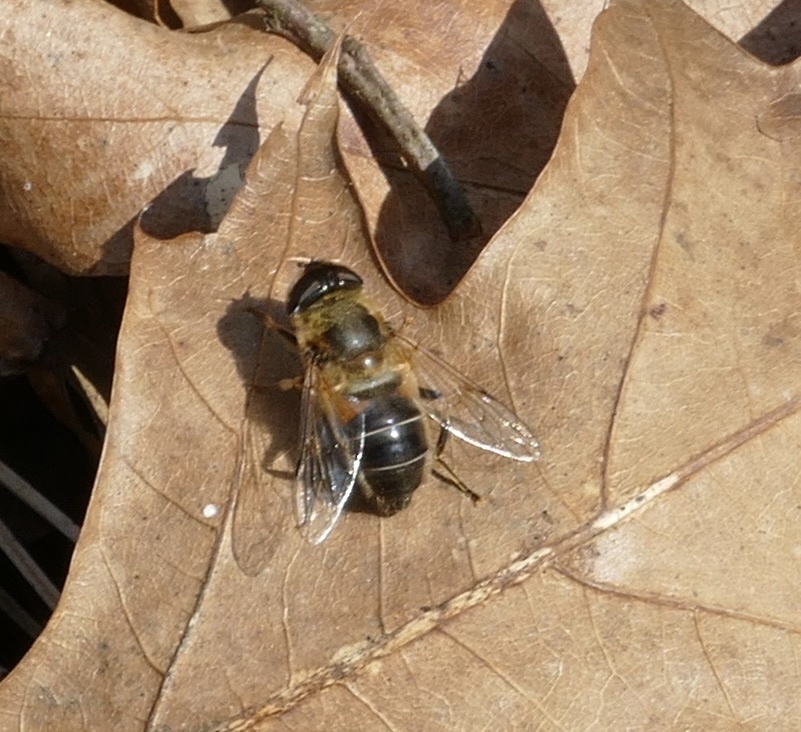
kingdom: Animalia
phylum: Arthropoda
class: Insecta
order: Diptera
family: Syrphidae
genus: Eristalis
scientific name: Eristalis pertinax
